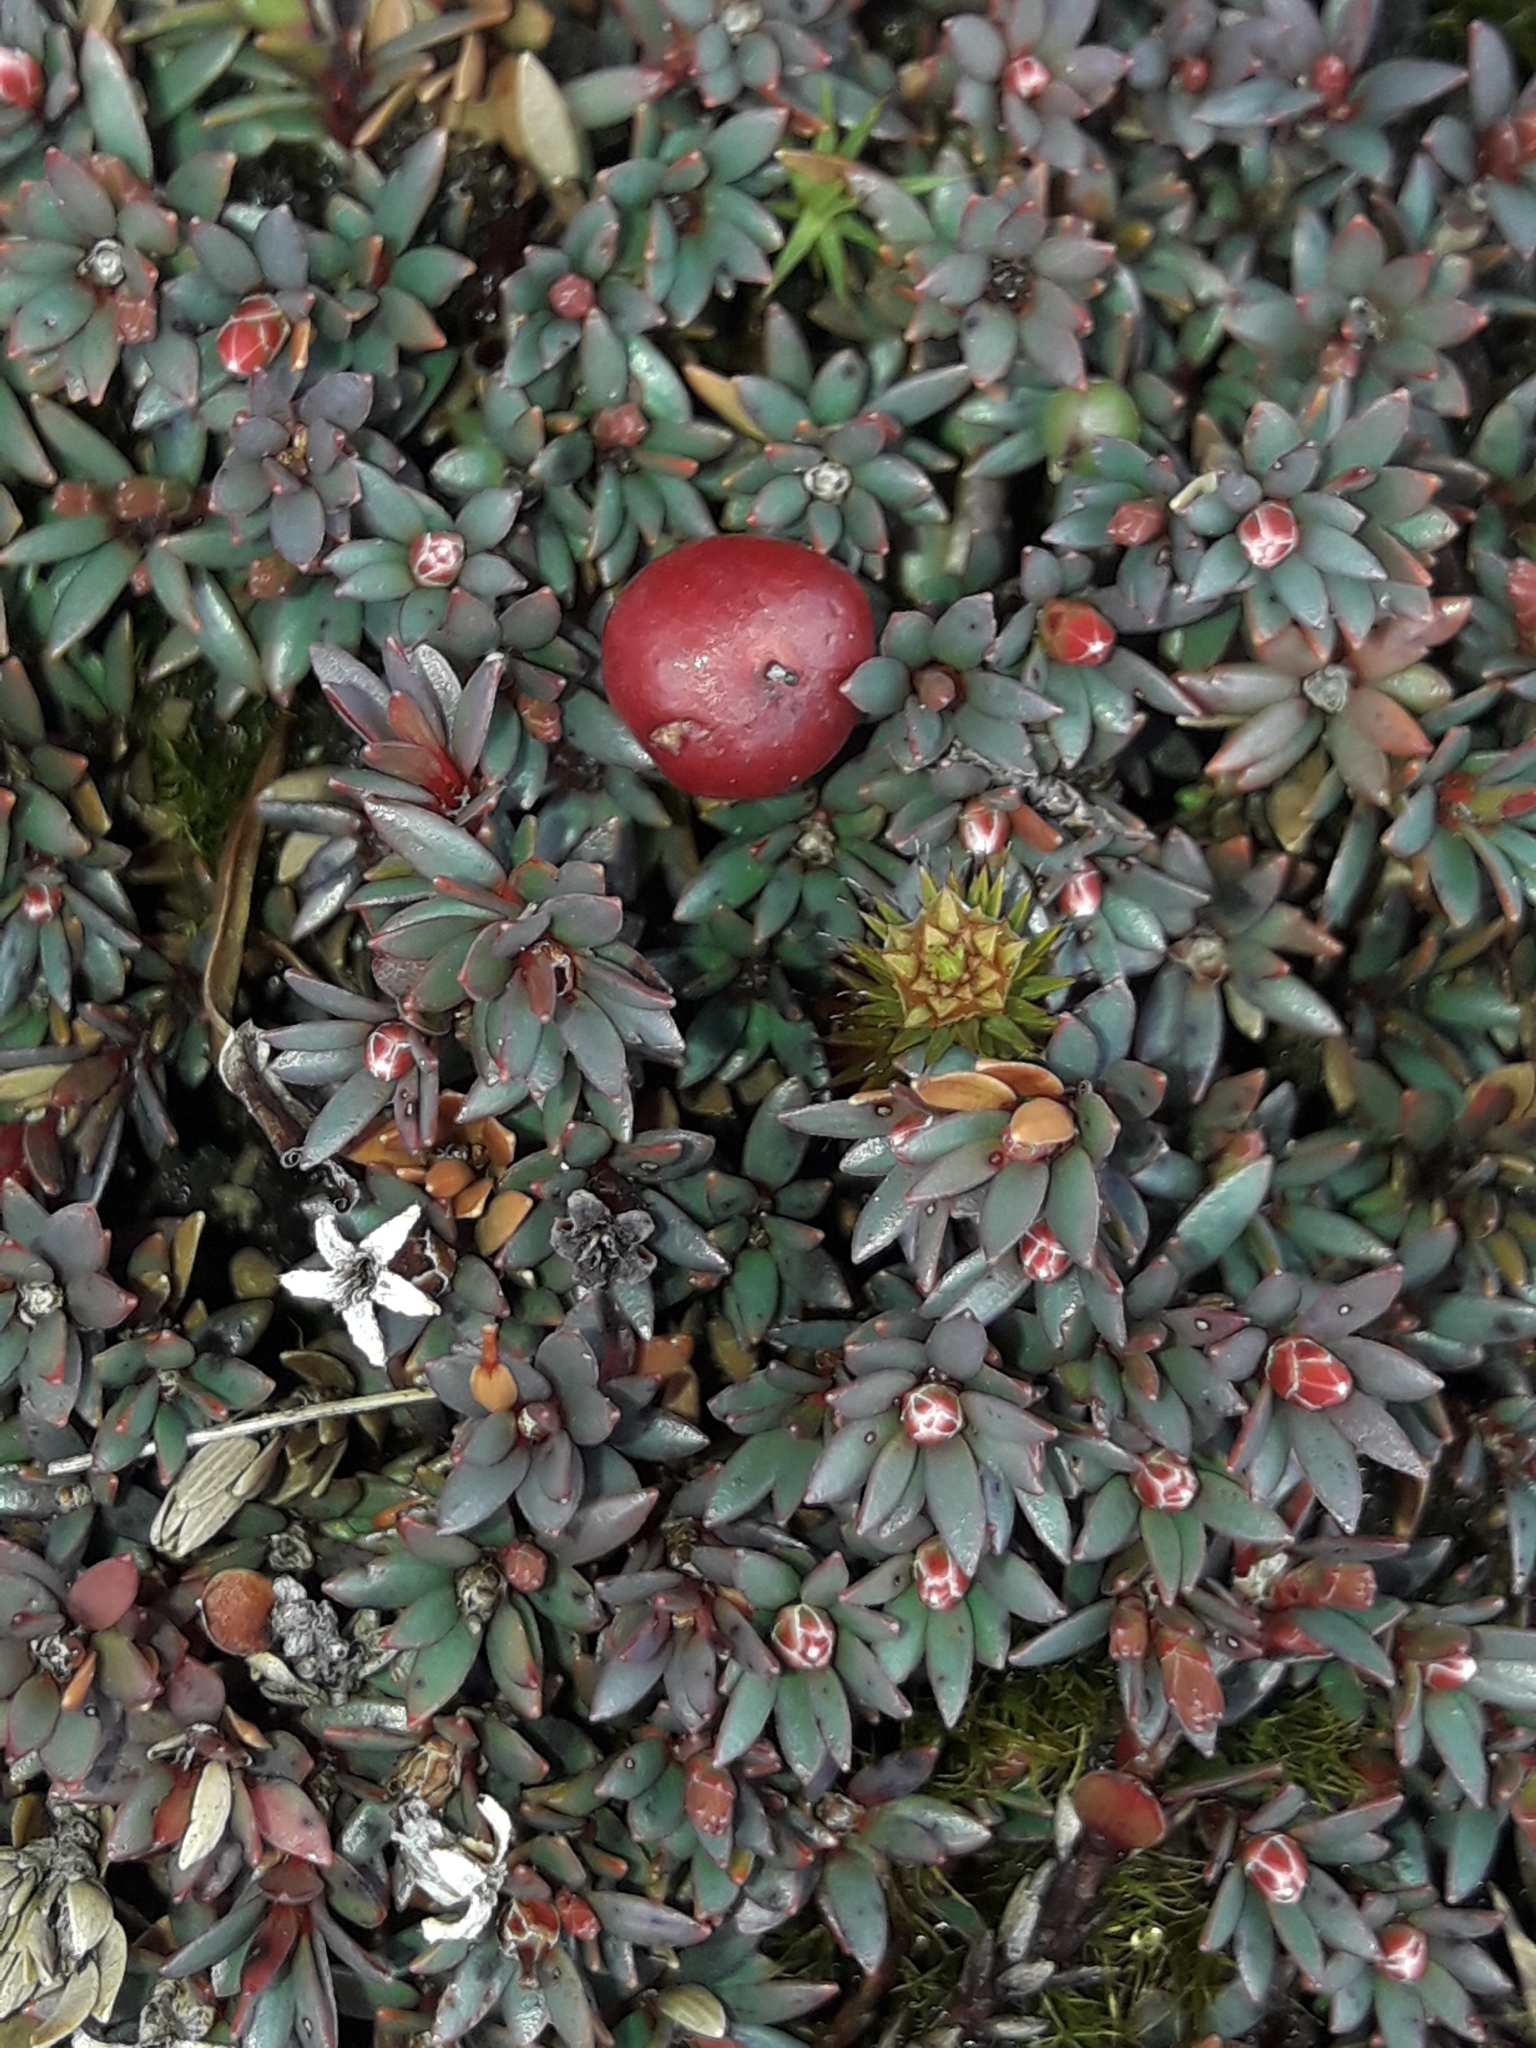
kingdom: Plantae
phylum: Tracheophyta
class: Magnoliopsida
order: Ericales
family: Ericaceae
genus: Pentachondra
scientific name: Pentachondra pumila
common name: Carpet-heath
